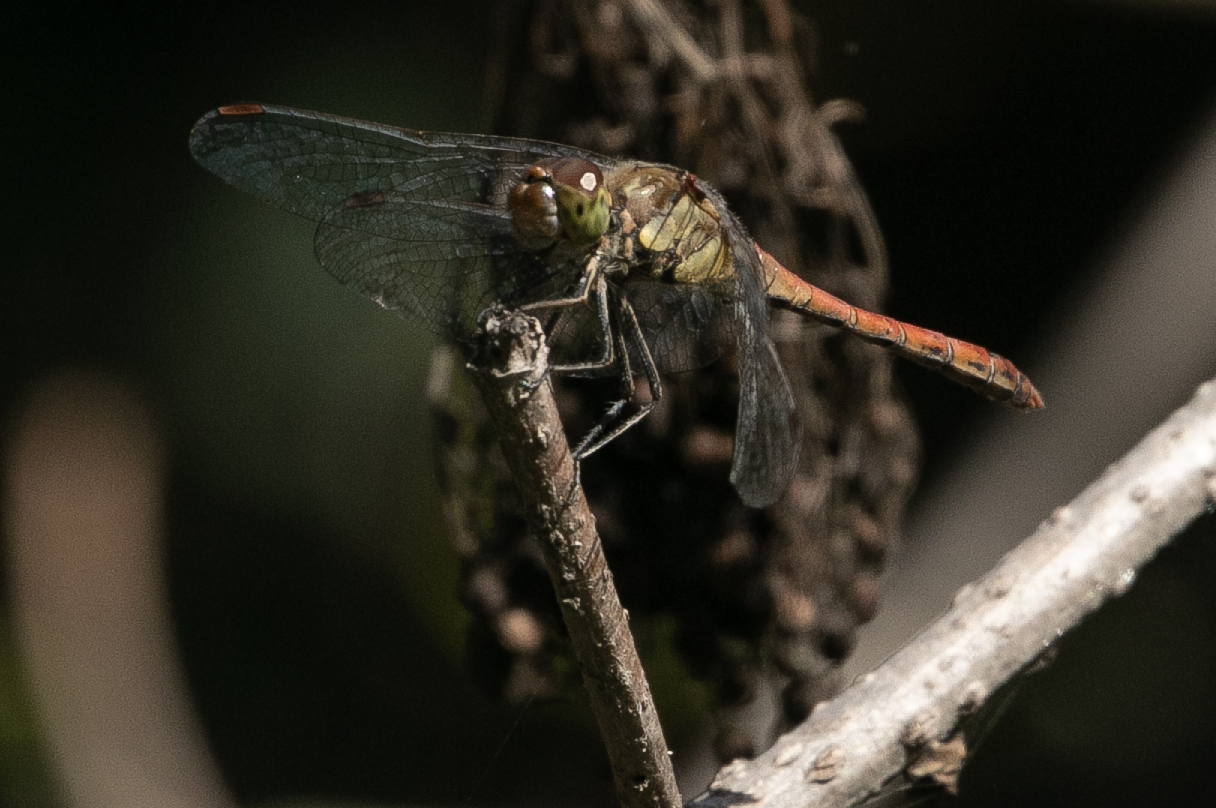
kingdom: Animalia
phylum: Arthropoda
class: Insecta
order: Odonata
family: Libellulidae
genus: Sympetrum
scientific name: Sympetrum striolatum
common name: Common darter
